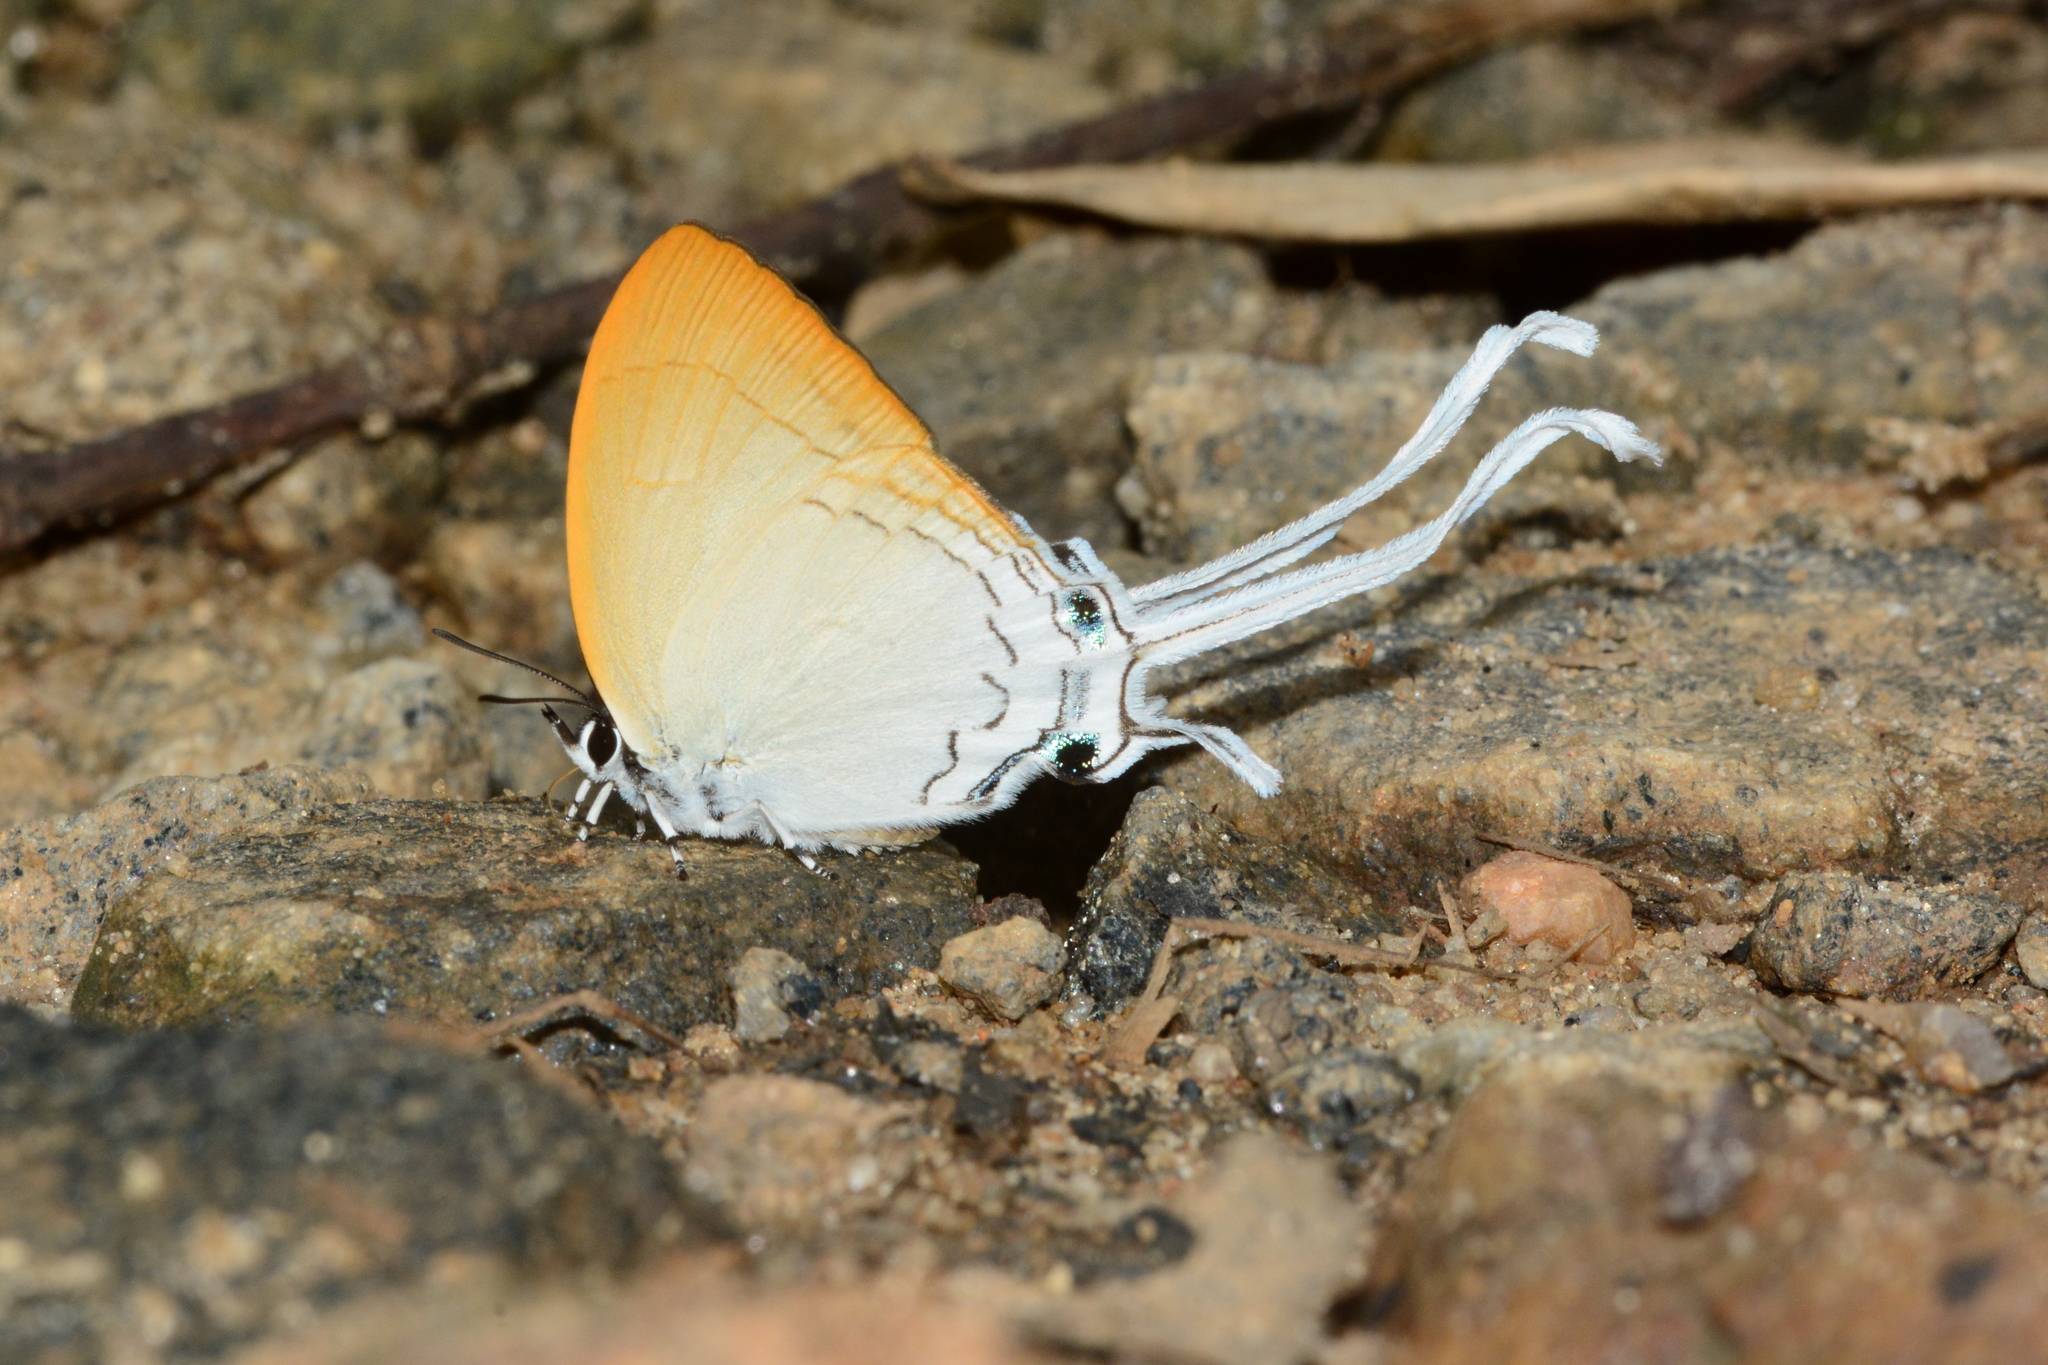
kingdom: Animalia
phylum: Arthropoda
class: Insecta
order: Lepidoptera
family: Lycaenidae
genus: Cheritra
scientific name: Cheritra freja
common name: Common imperial
